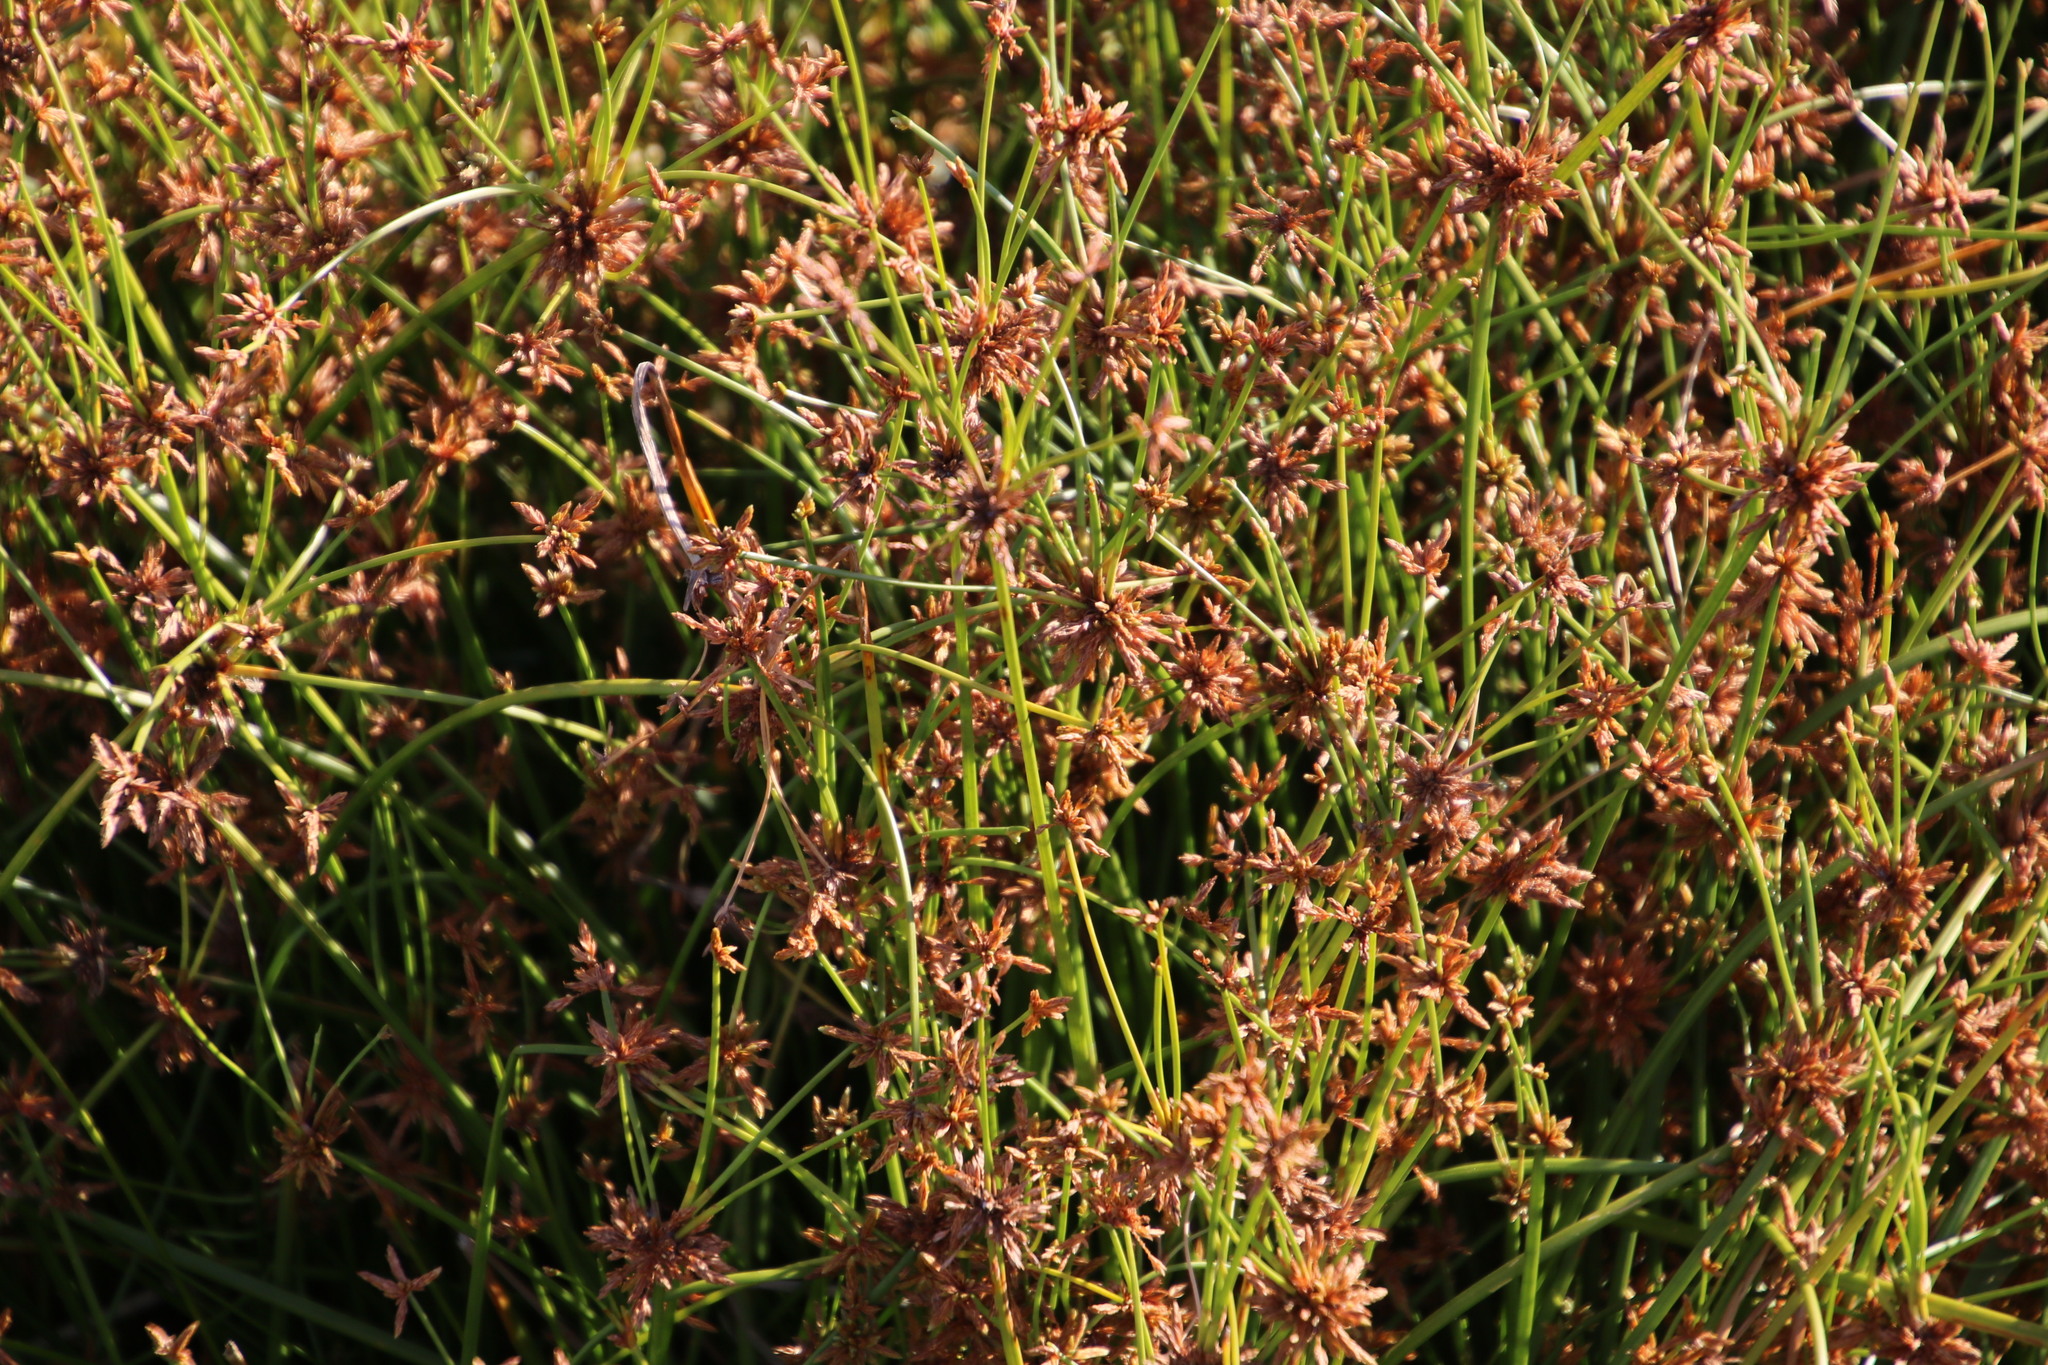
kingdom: Plantae
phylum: Tracheophyta
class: Liliopsida
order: Poales
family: Cyperaceae
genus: Isolepis
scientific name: Isolepis prolifera
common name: Proliferating bulrush
